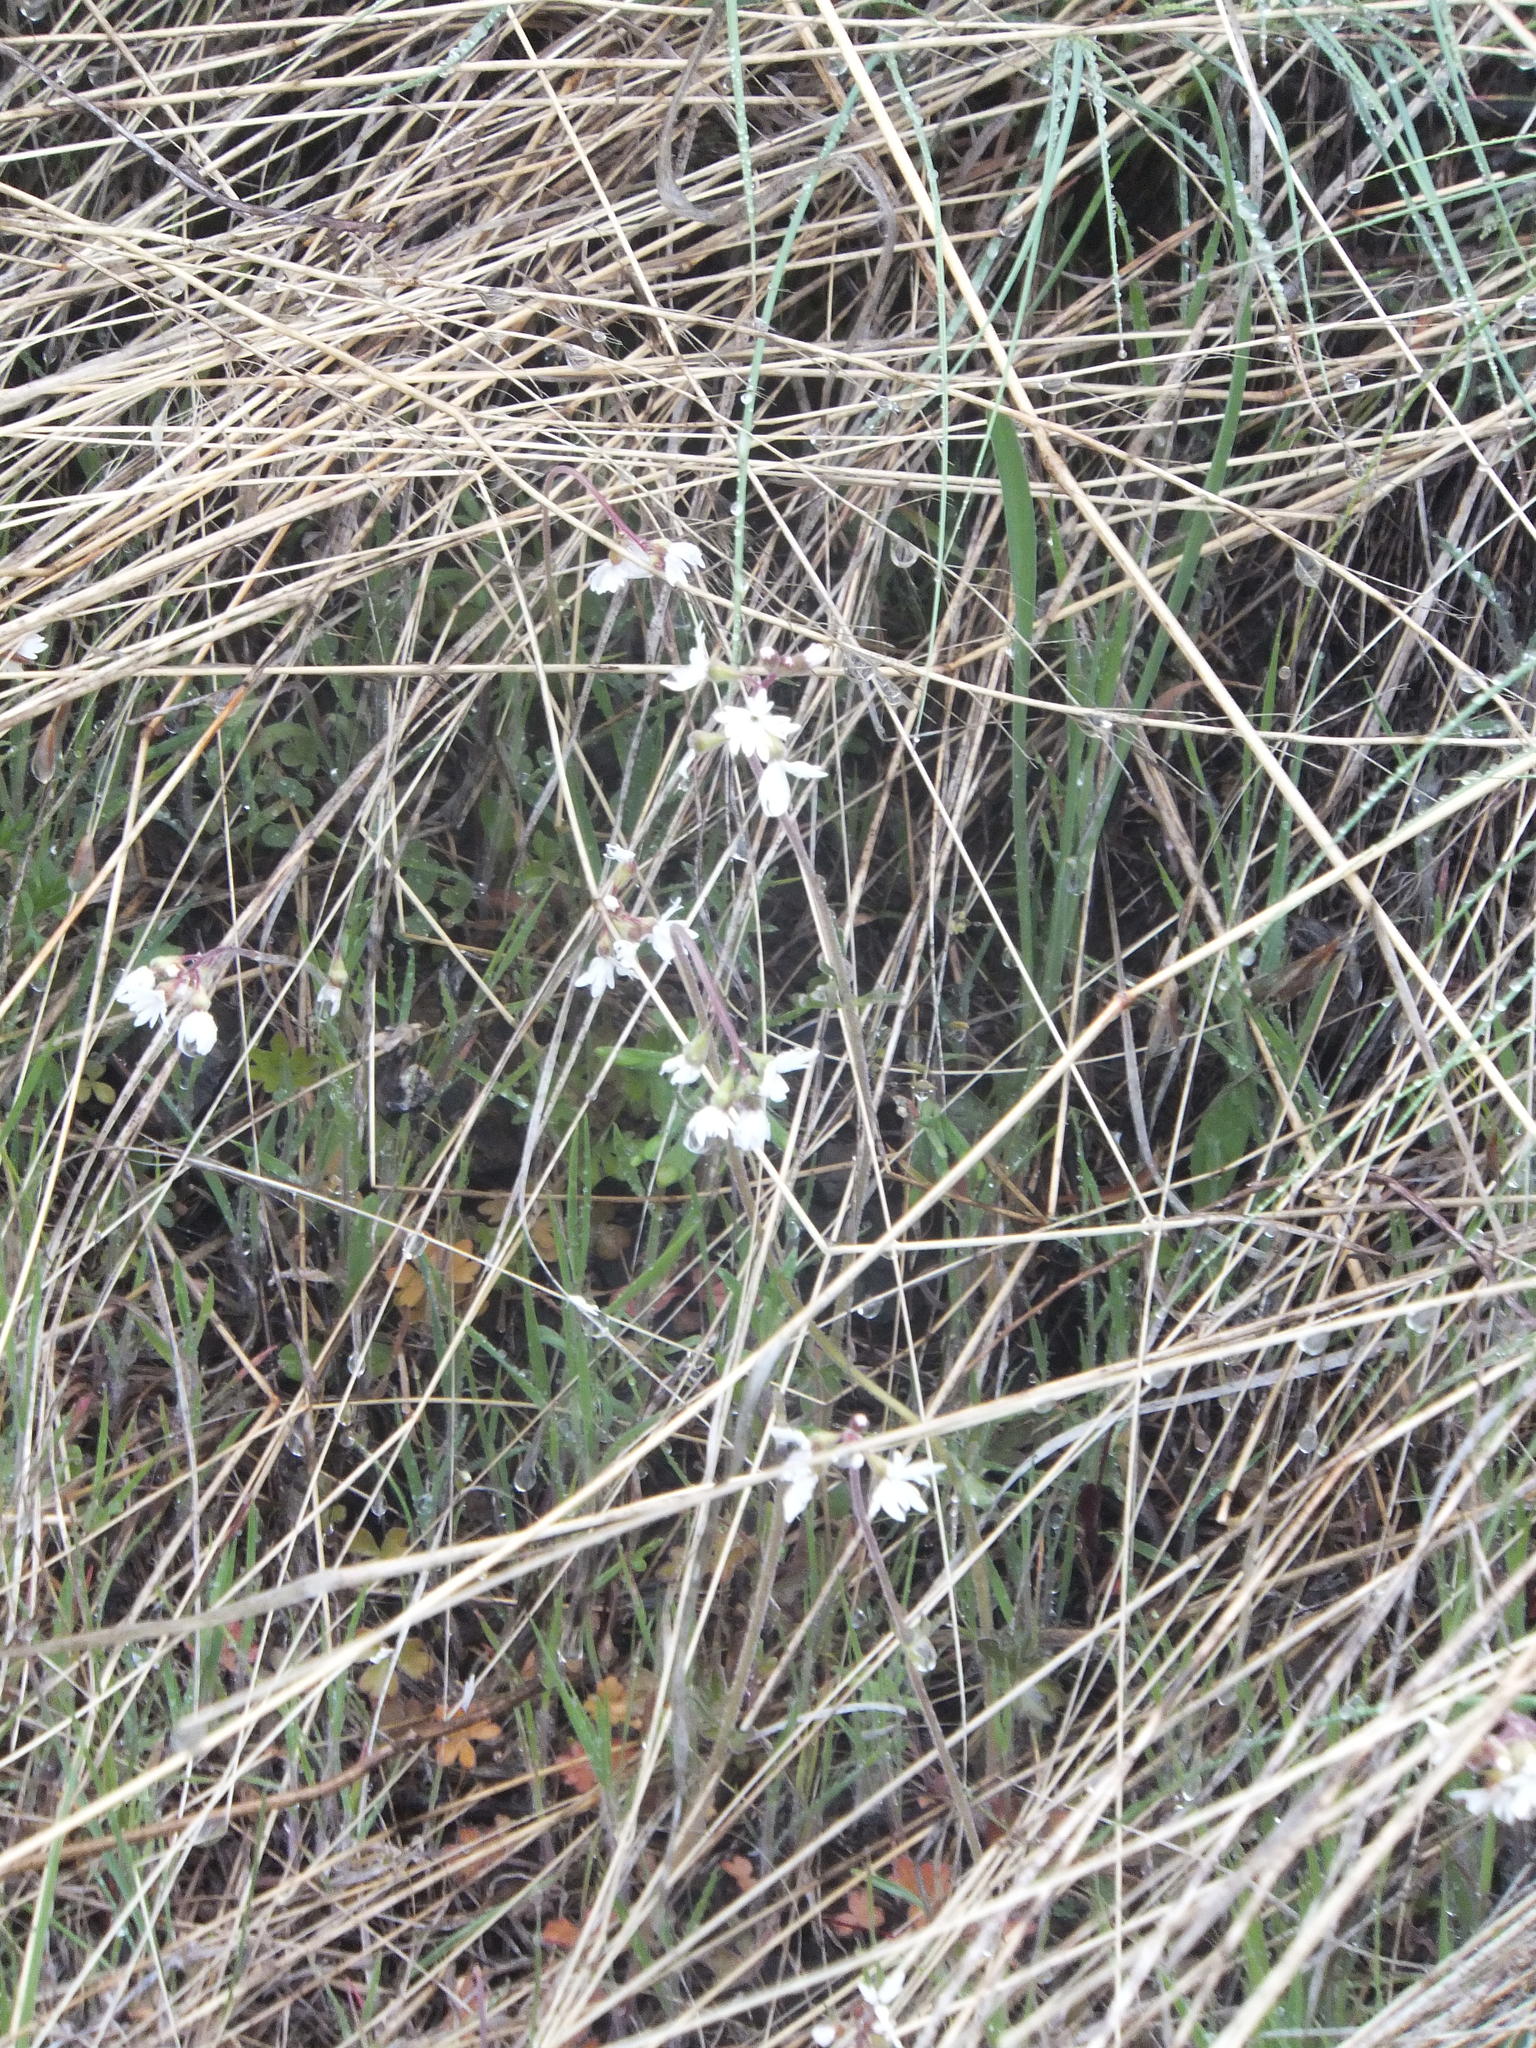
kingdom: Plantae
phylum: Tracheophyta
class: Magnoliopsida
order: Saxifragales
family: Saxifragaceae
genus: Lithophragma
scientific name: Lithophragma parviflorum
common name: Small-flowered fringe-cup
